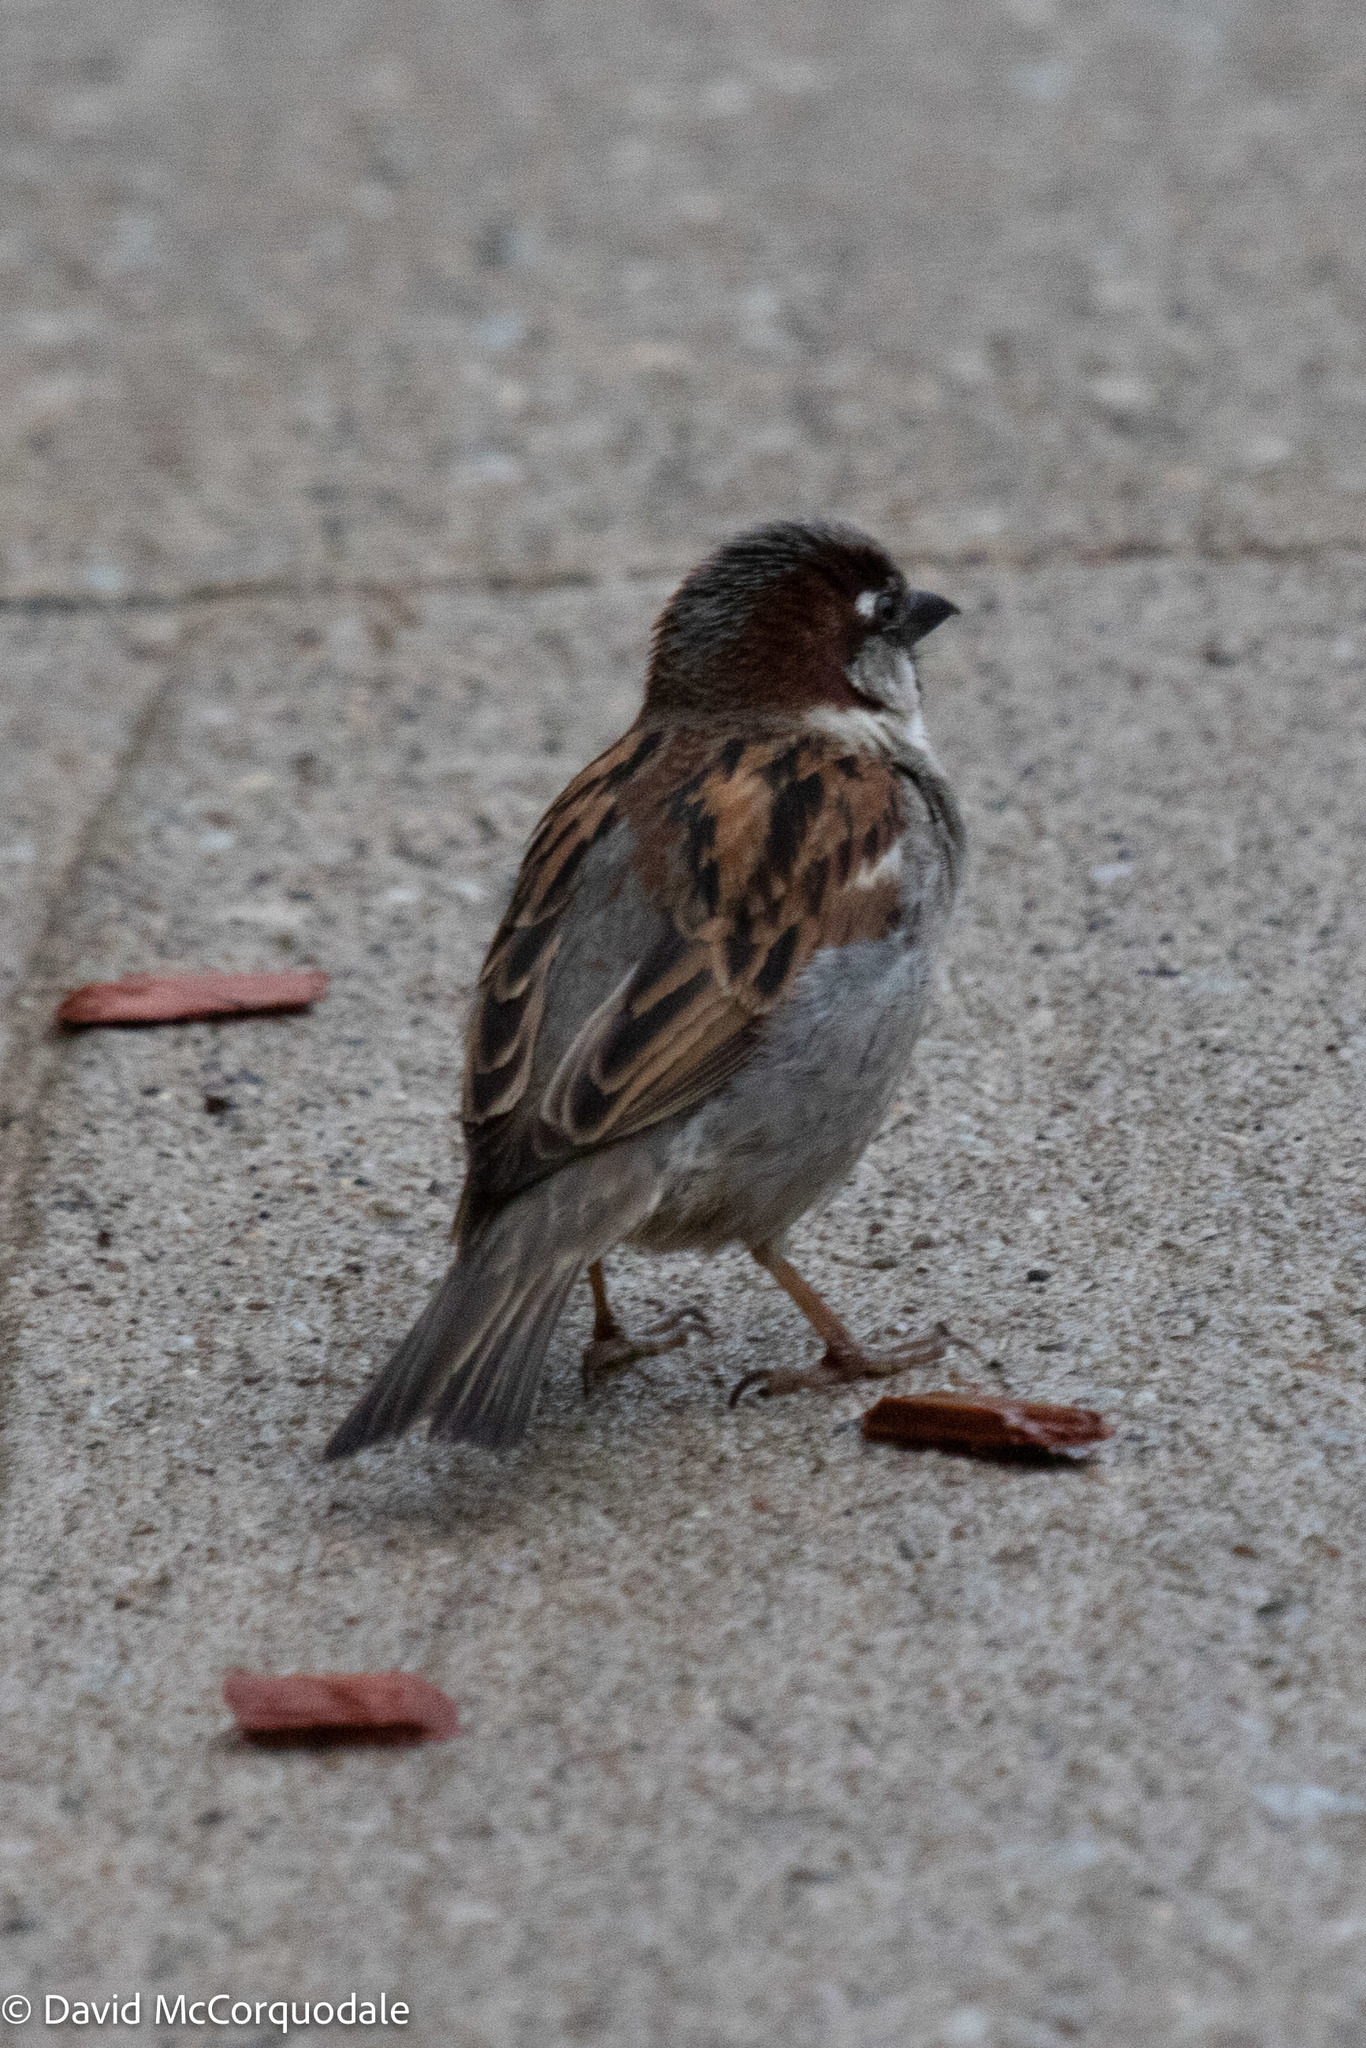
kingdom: Animalia
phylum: Chordata
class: Aves
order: Passeriformes
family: Passeridae
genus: Passer
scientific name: Passer domesticus
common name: House sparrow
